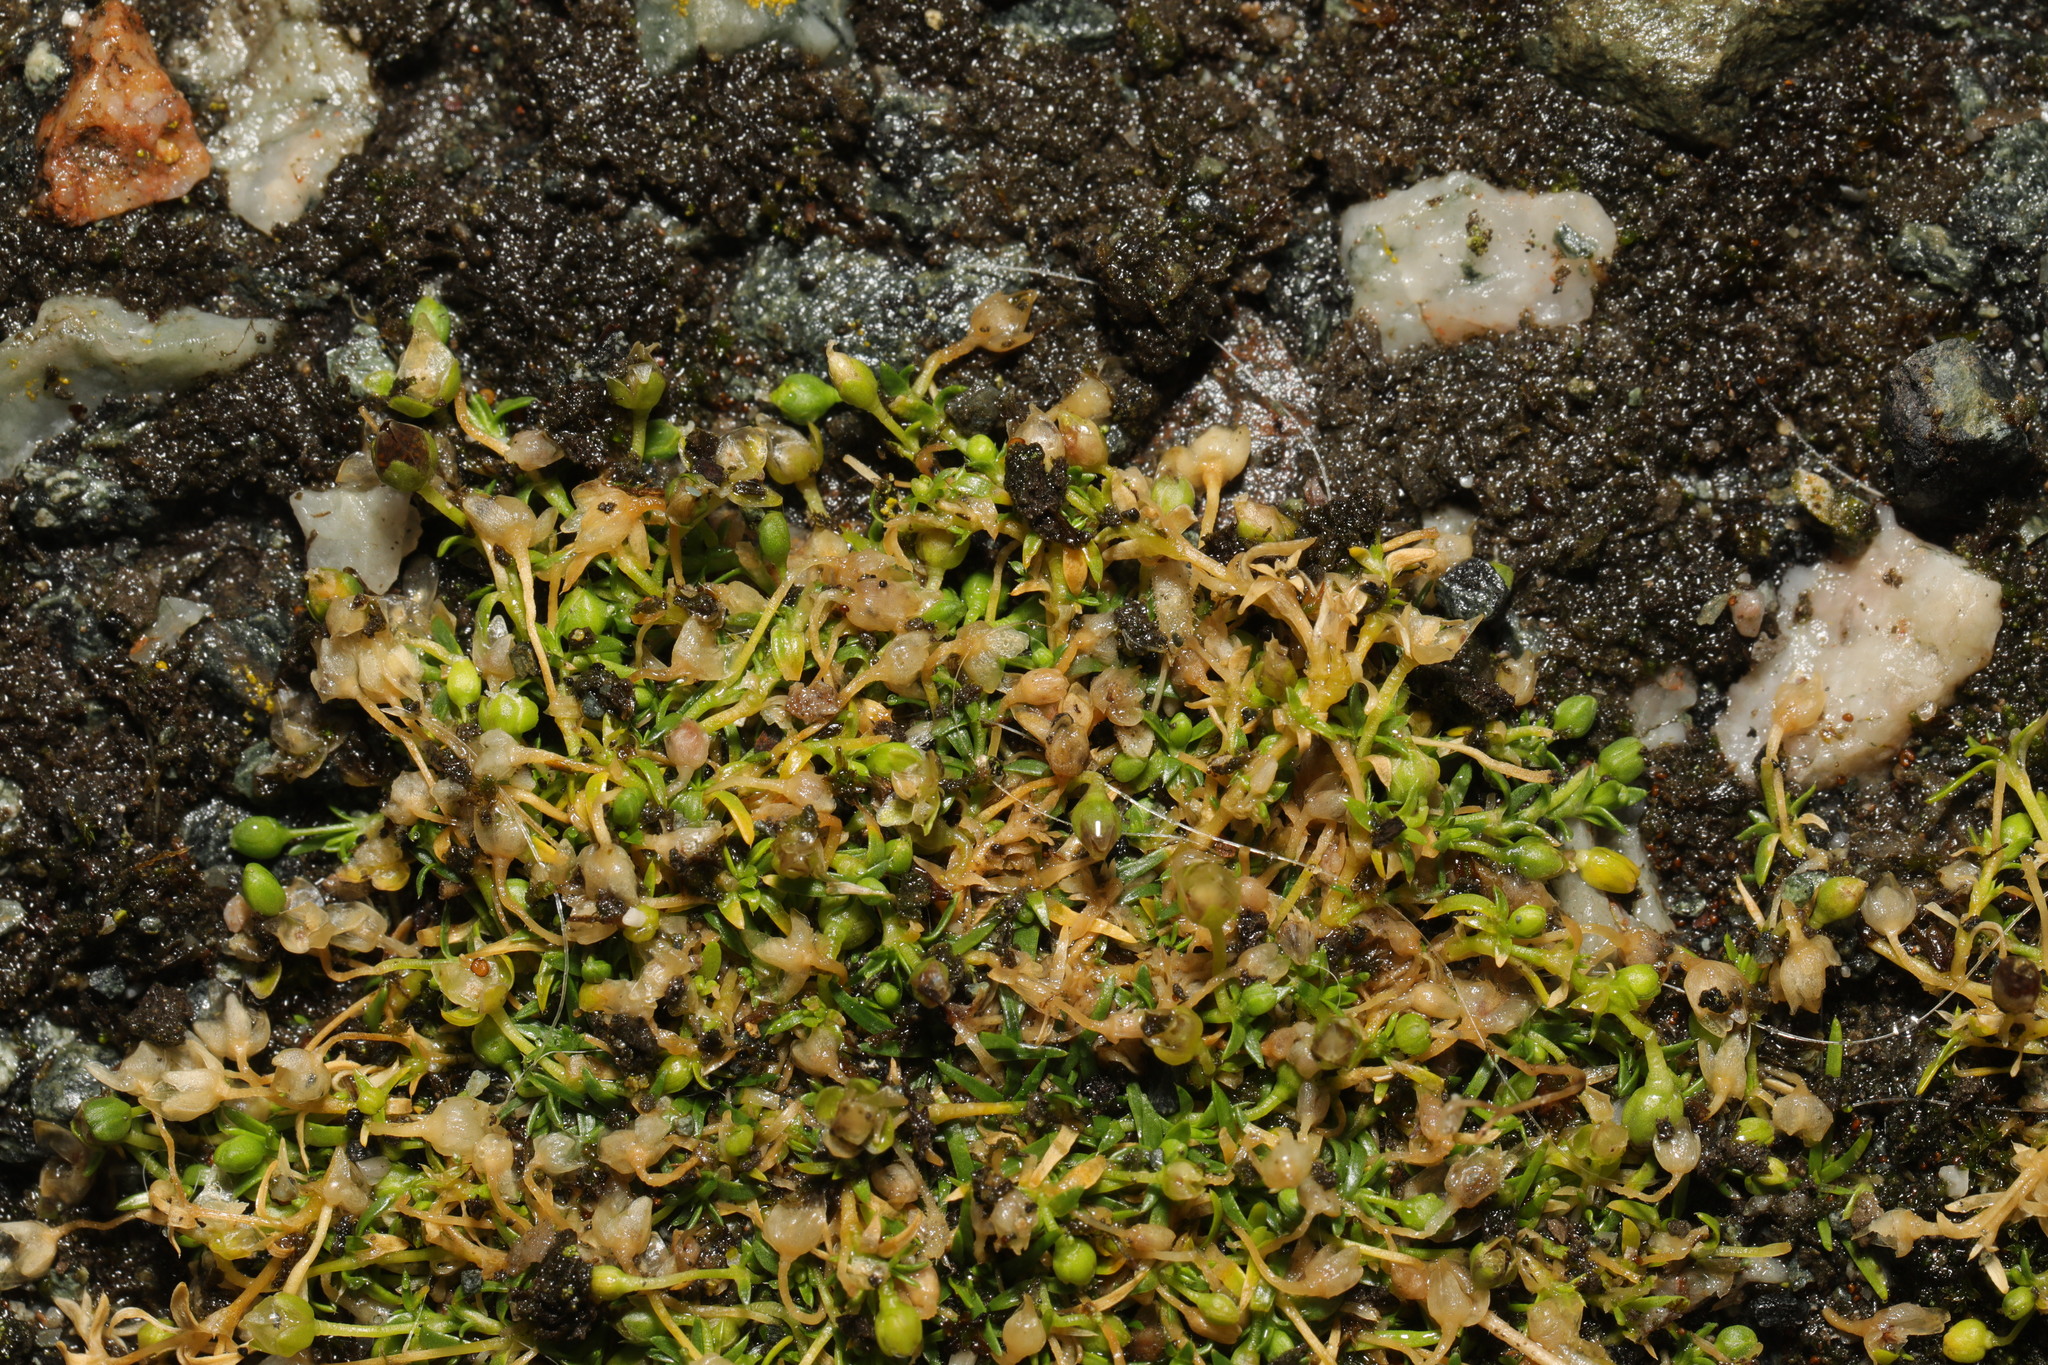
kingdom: Plantae
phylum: Tracheophyta
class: Magnoliopsida
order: Caryophyllales
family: Caryophyllaceae
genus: Sagina
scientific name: Sagina procumbens
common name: Procumbent pearlwort
